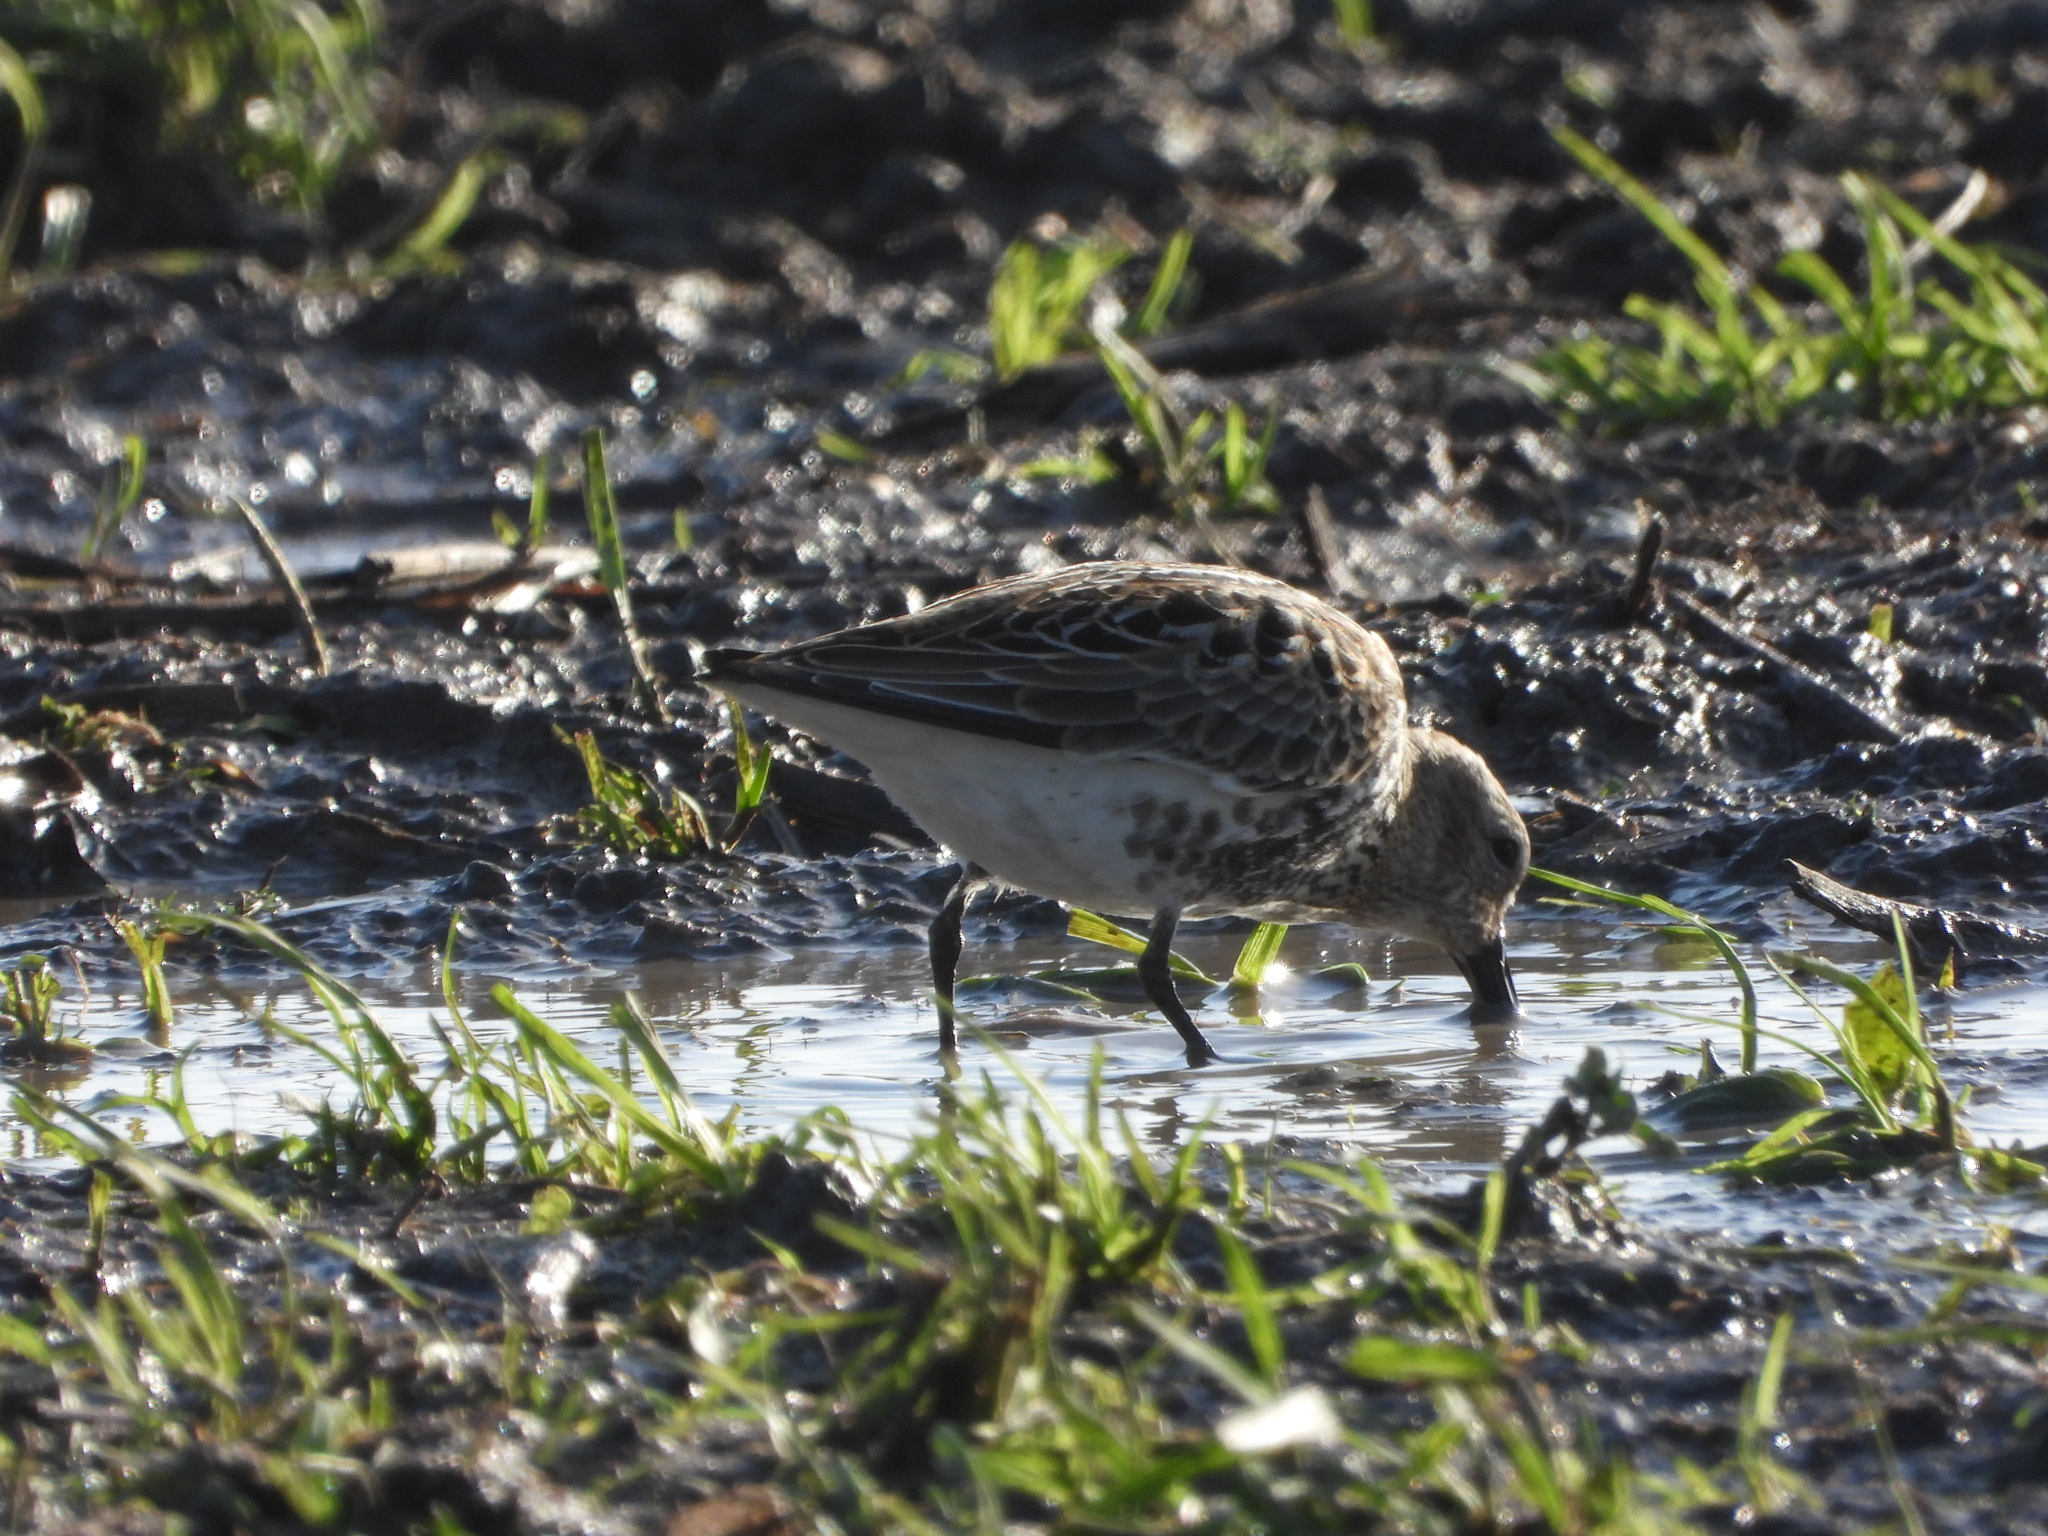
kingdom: Animalia
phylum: Chordata
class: Aves
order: Charadriiformes
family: Scolopacidae
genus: Calidris
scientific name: Calidris alpina
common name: Dunlin
